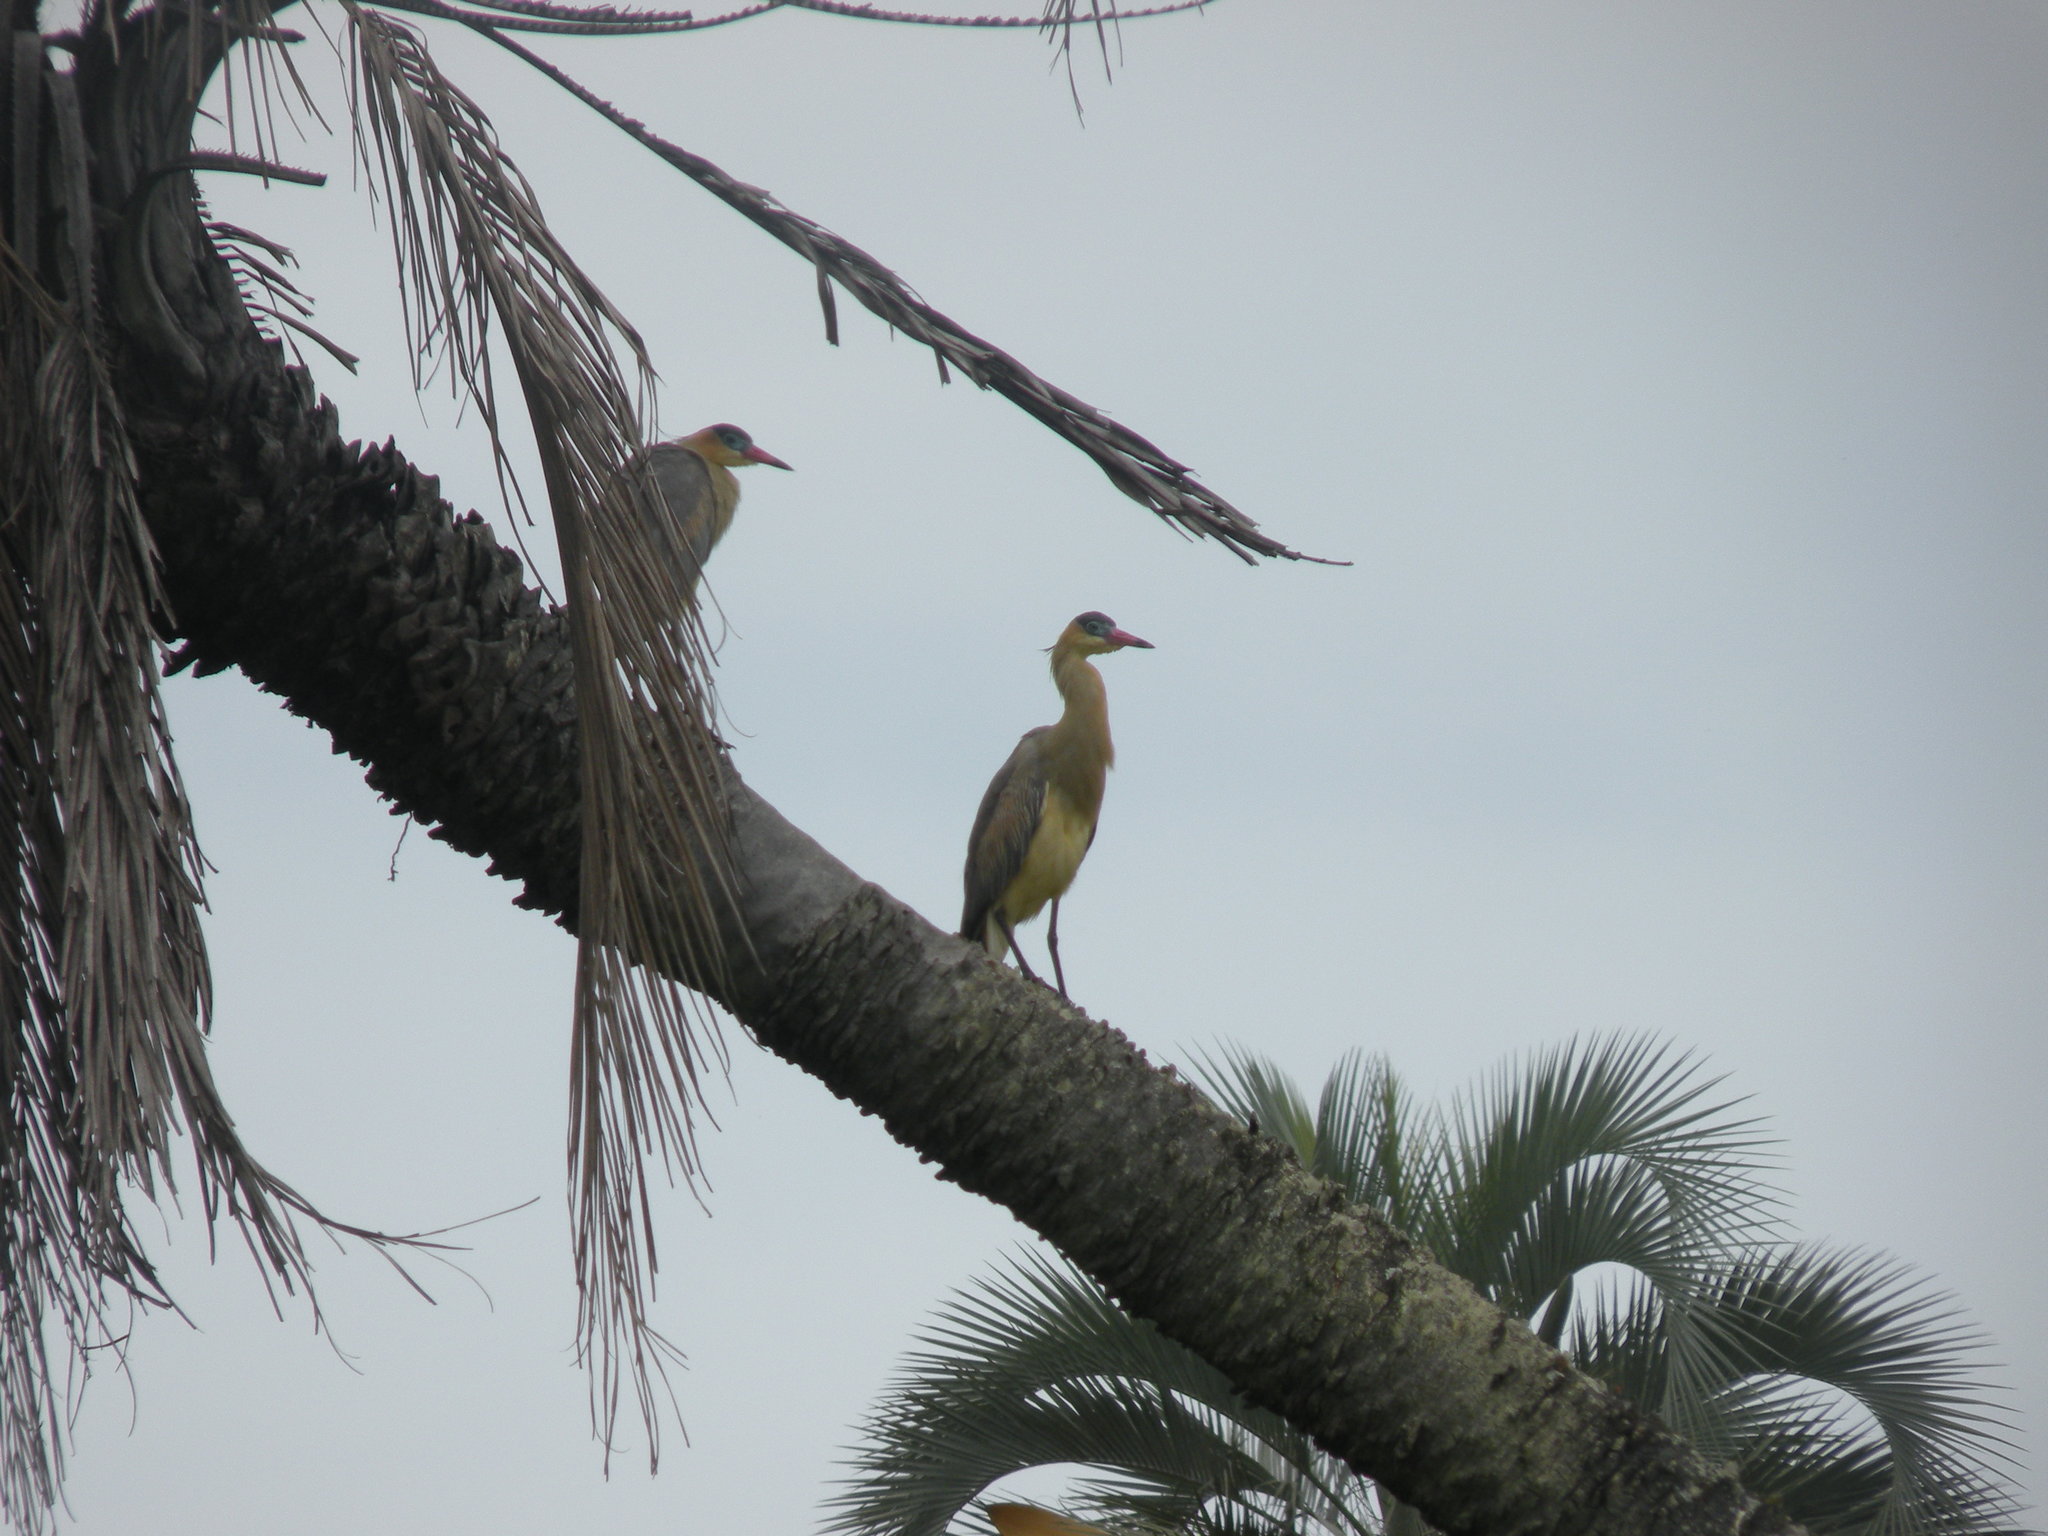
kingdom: Animalia
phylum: Chordata
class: Aves
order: Pelecaniformes
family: Ardeidae
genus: Syrigma
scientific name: Syrigma sibilatrix
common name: Whistling heron
